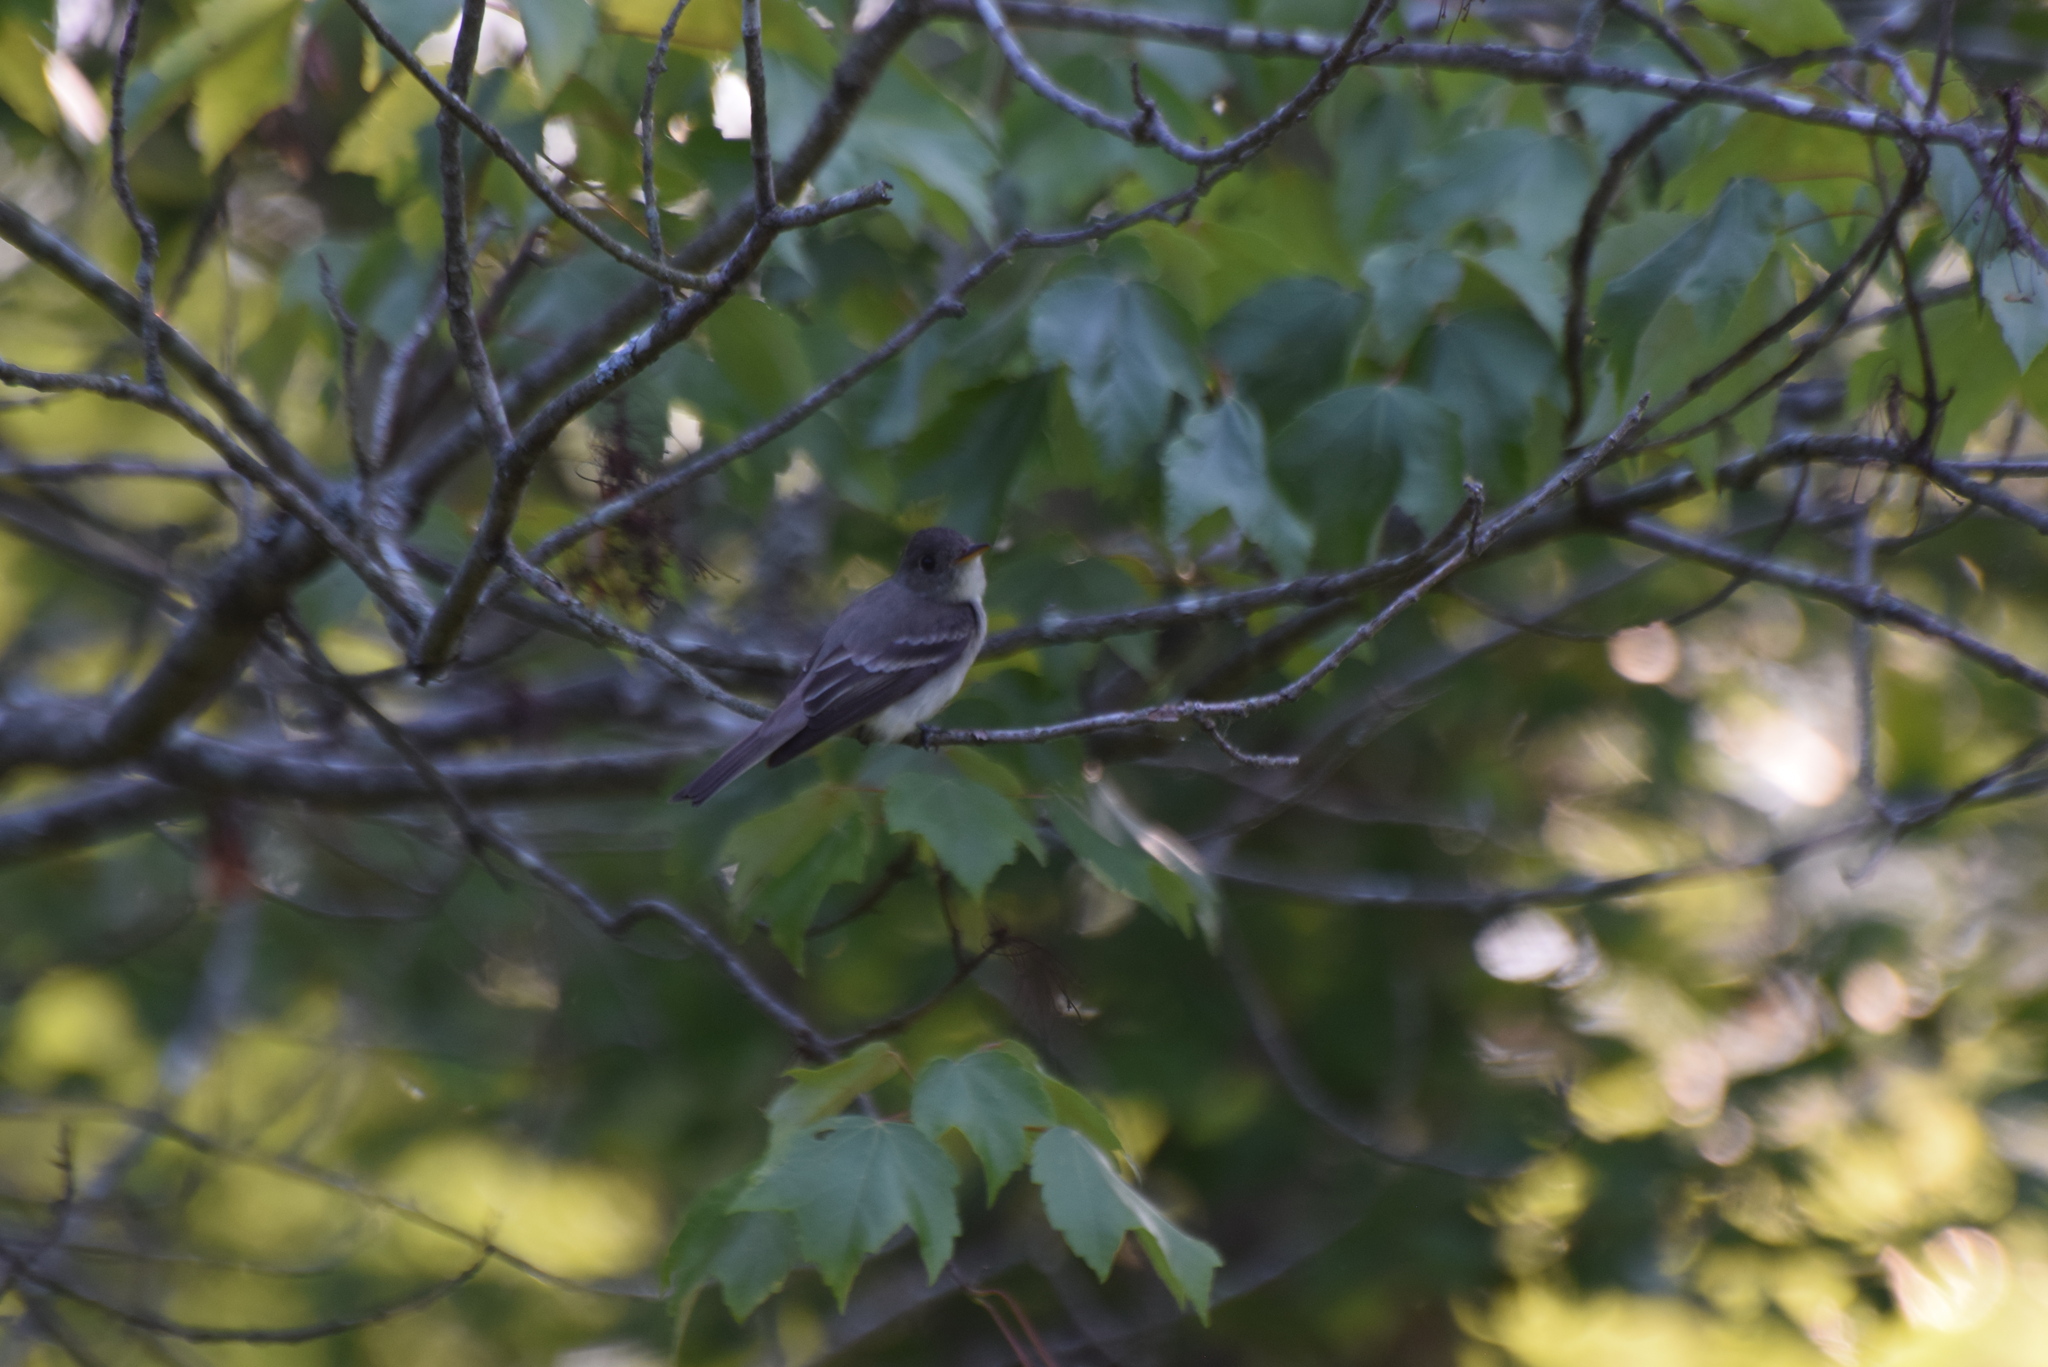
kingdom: Animalia
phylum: Chordata
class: Aves
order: Passeriformes
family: Tyrannidae
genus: Contopus
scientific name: Contopus virens
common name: Eastern wood-pewee
